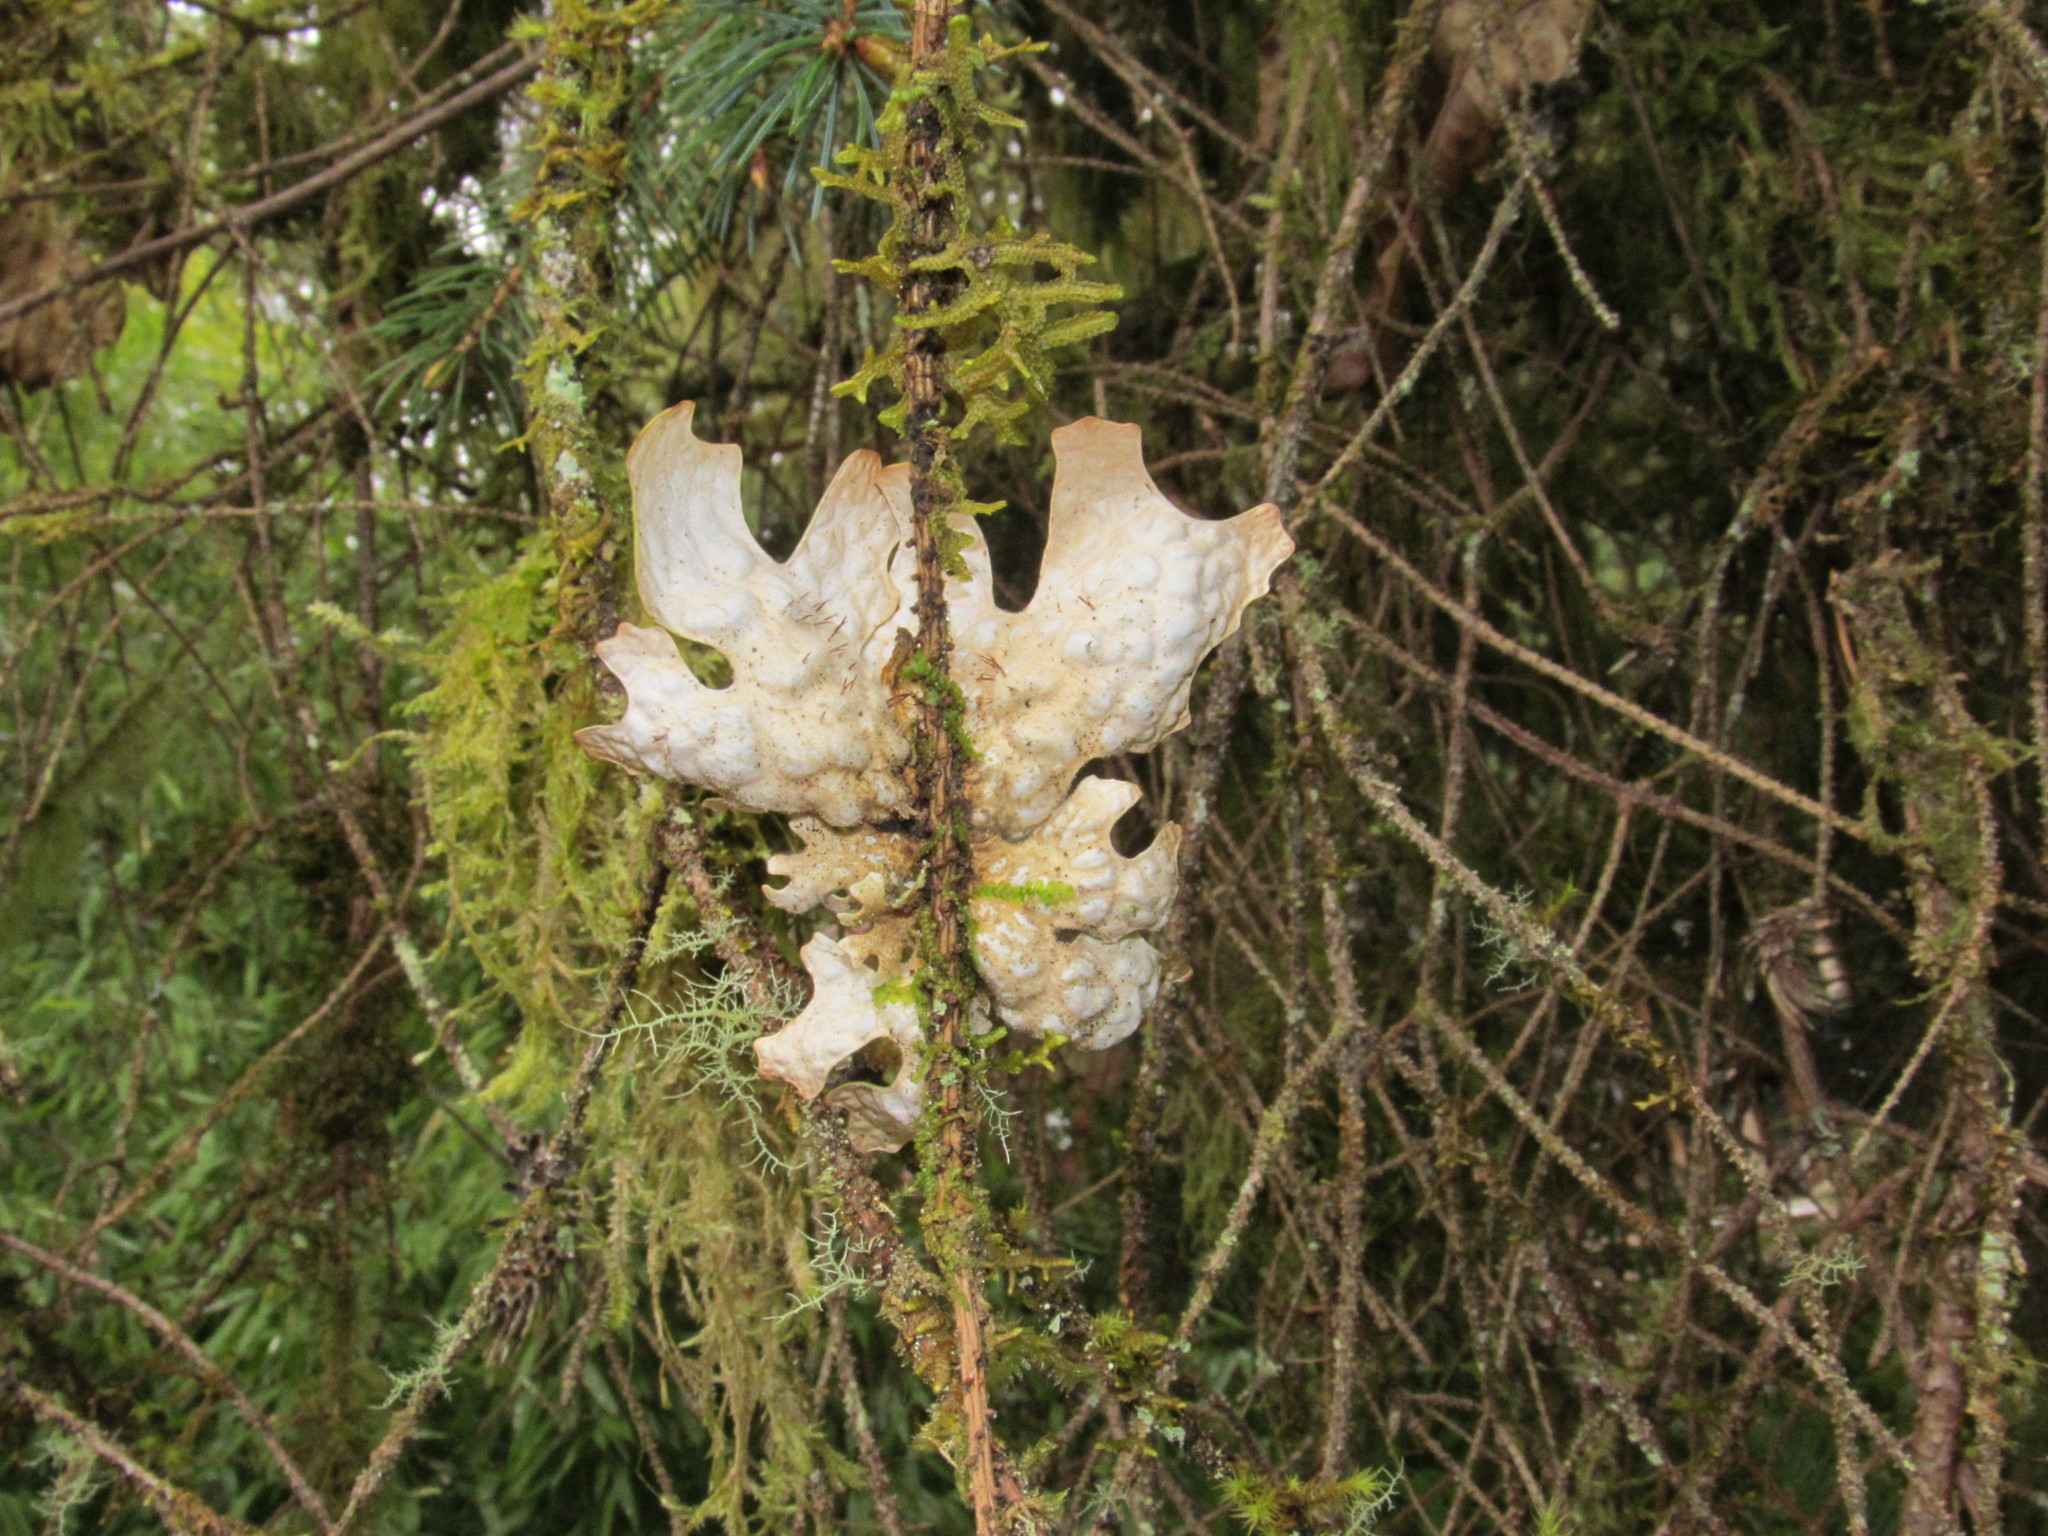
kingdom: Fungi
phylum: Ascomycota
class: Lecanoromycetes
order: Peltigerales
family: Lobariaceae
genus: Lobaria
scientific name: Lobaria pulmonaria
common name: Lungwort
